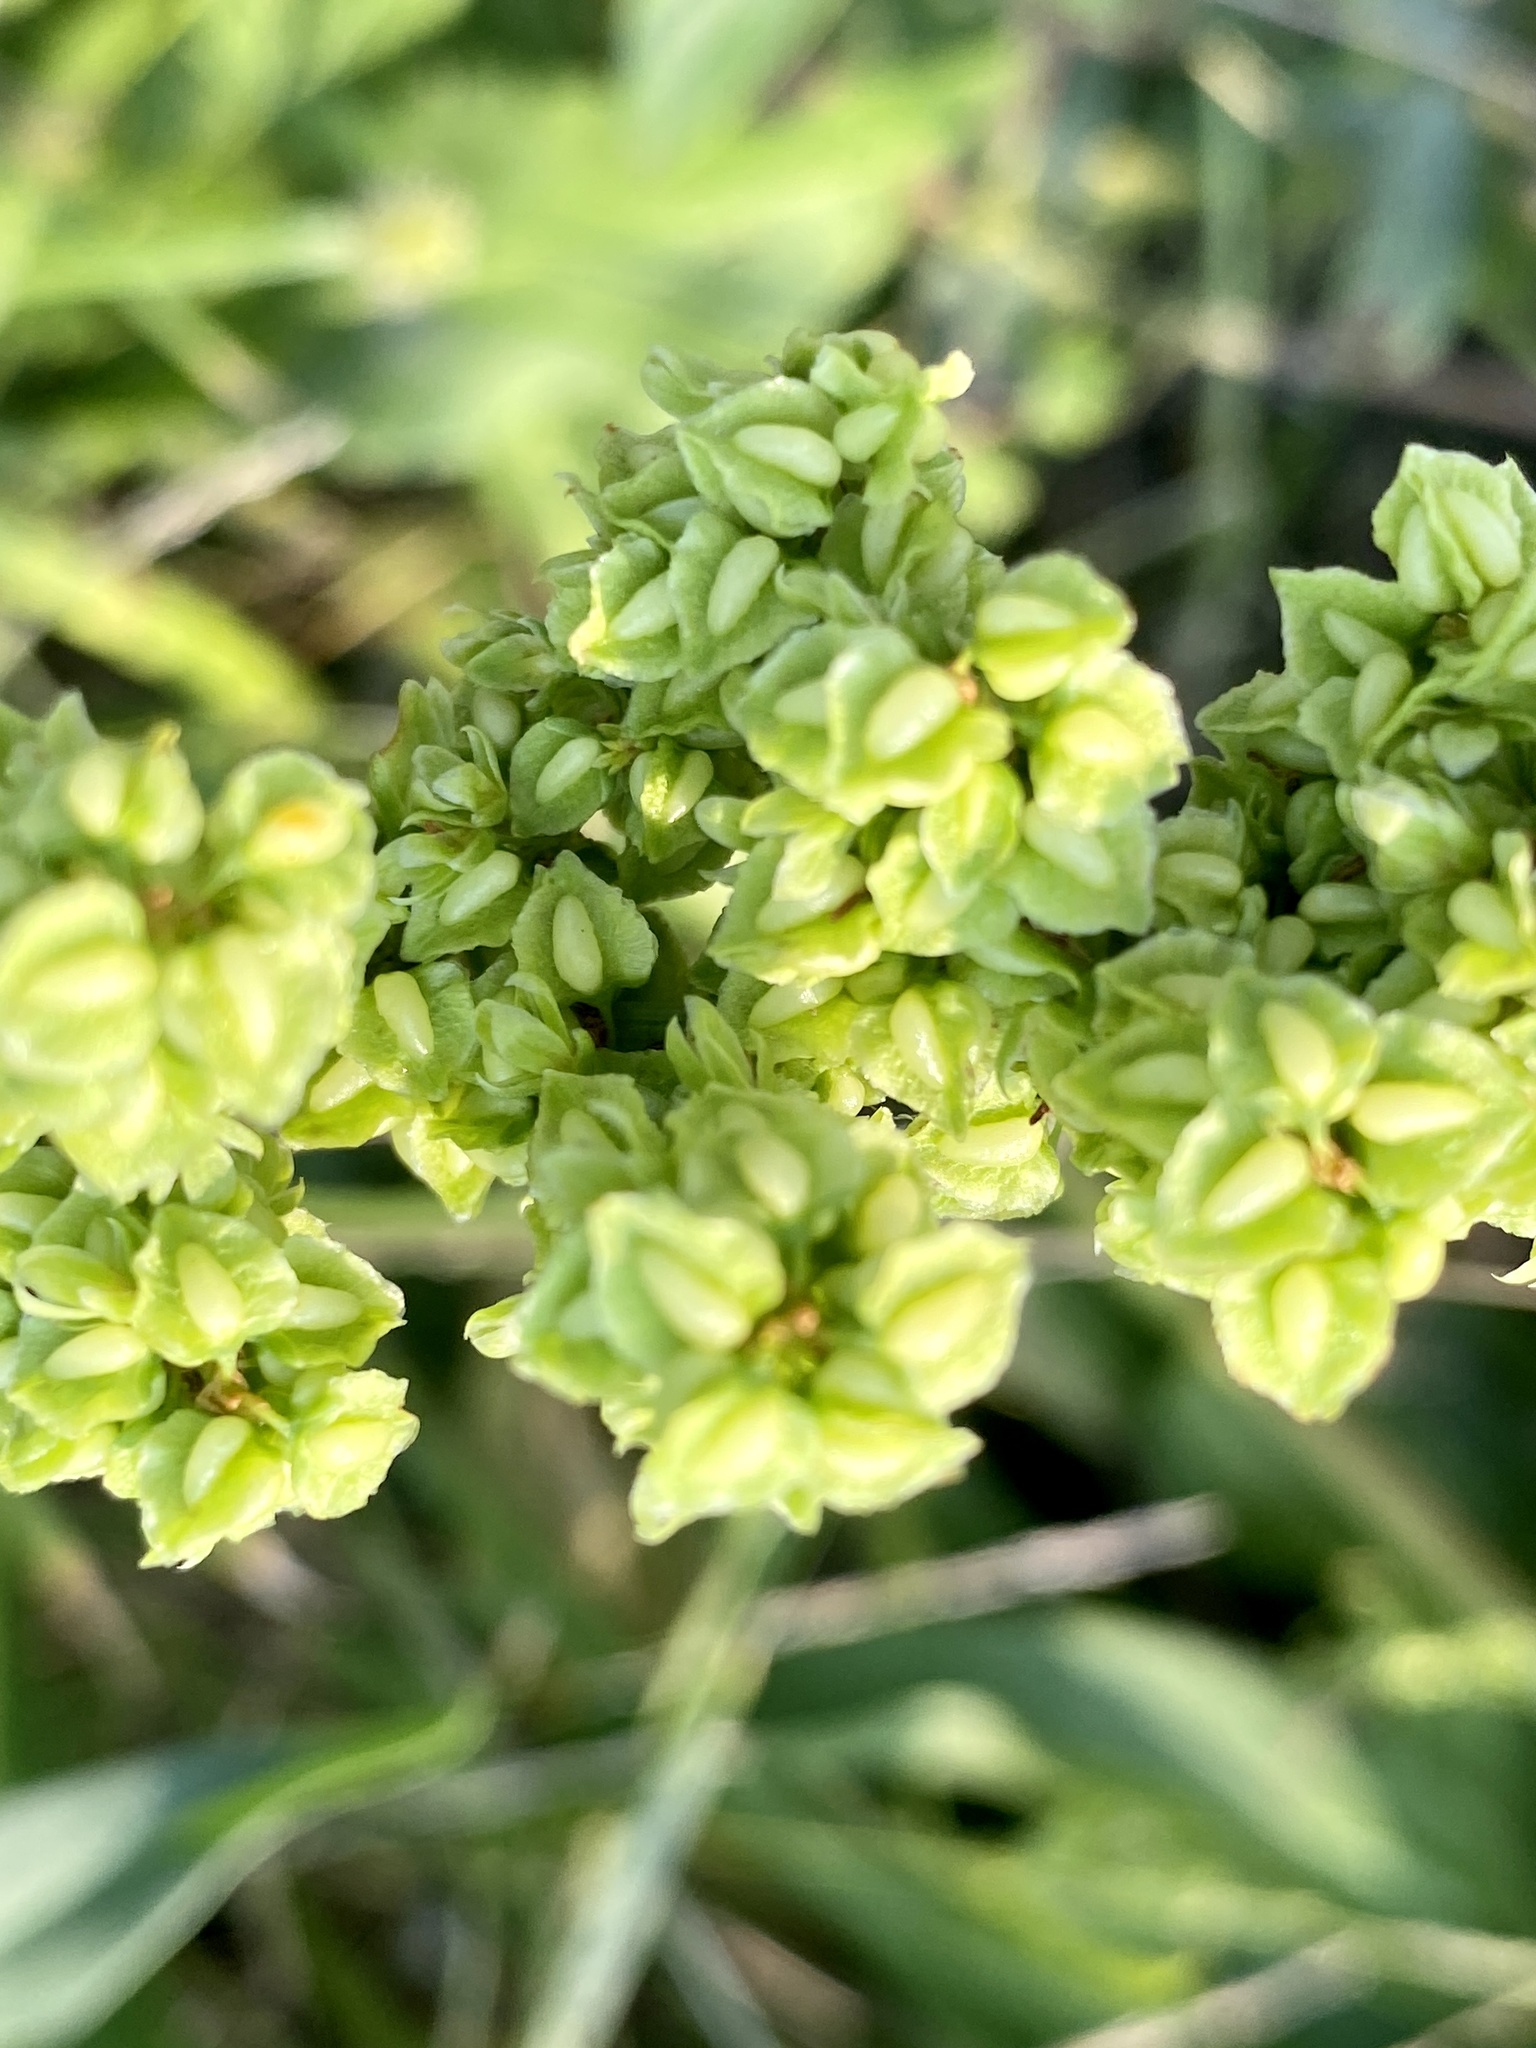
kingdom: Plantae
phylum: Tracheophyta
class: Magnoliopsida
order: Caryophyllales
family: Polygonaceae
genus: Rumex
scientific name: Rumex triangulivalvis
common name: Triangular-valve dock
